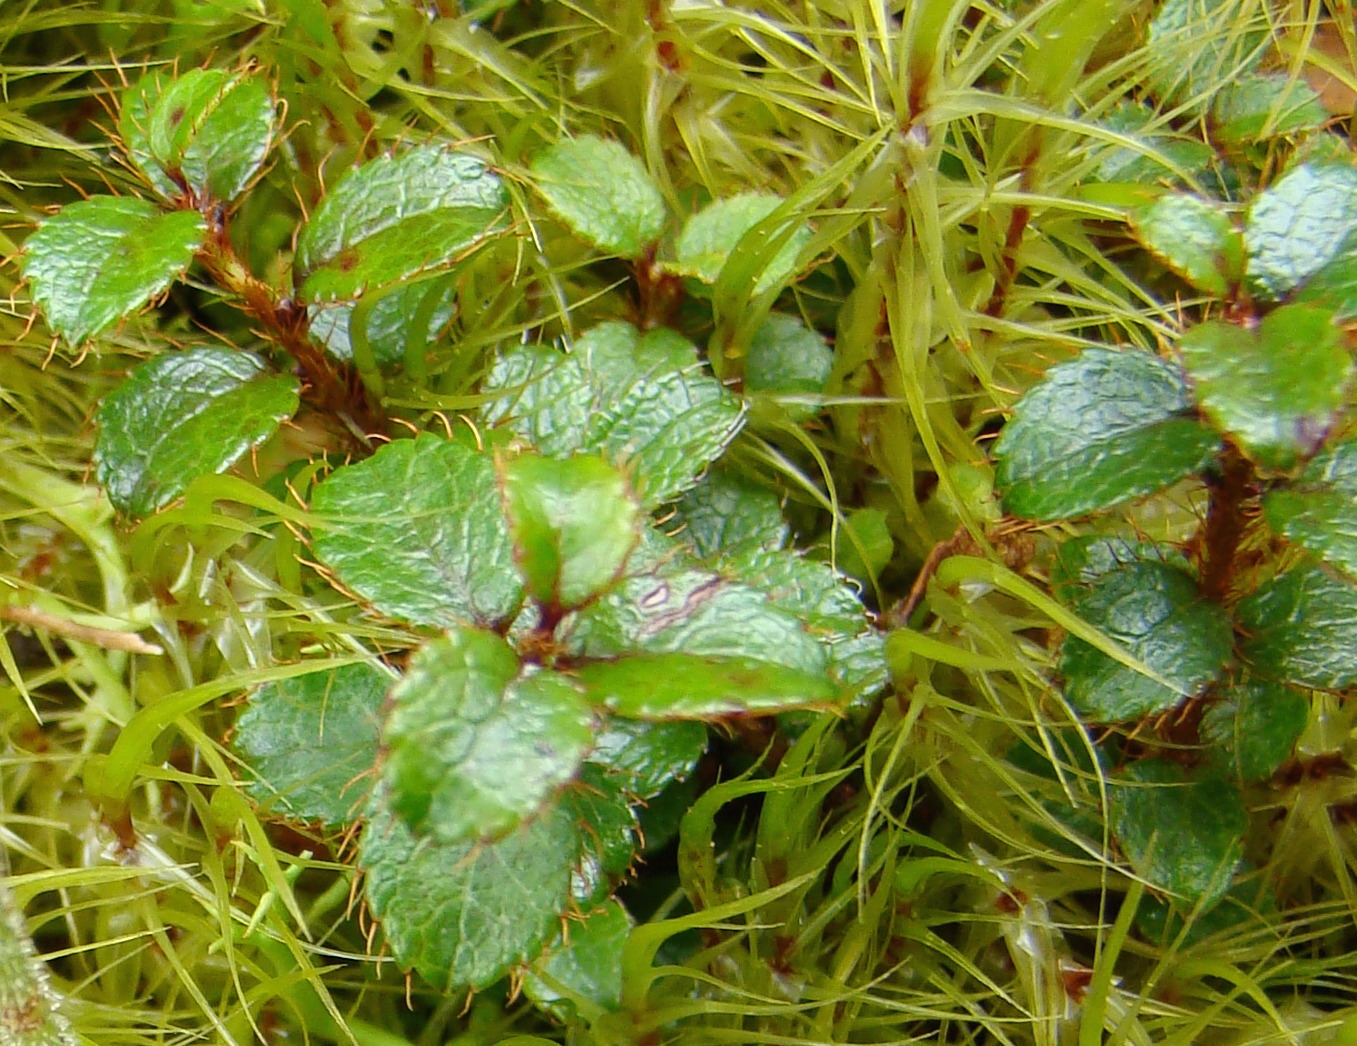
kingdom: Plantae
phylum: Tracheophyta
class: Magnoliopsida
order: Ericales
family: Ericaceae
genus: Gaultheria
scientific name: Gaultheria depressa
